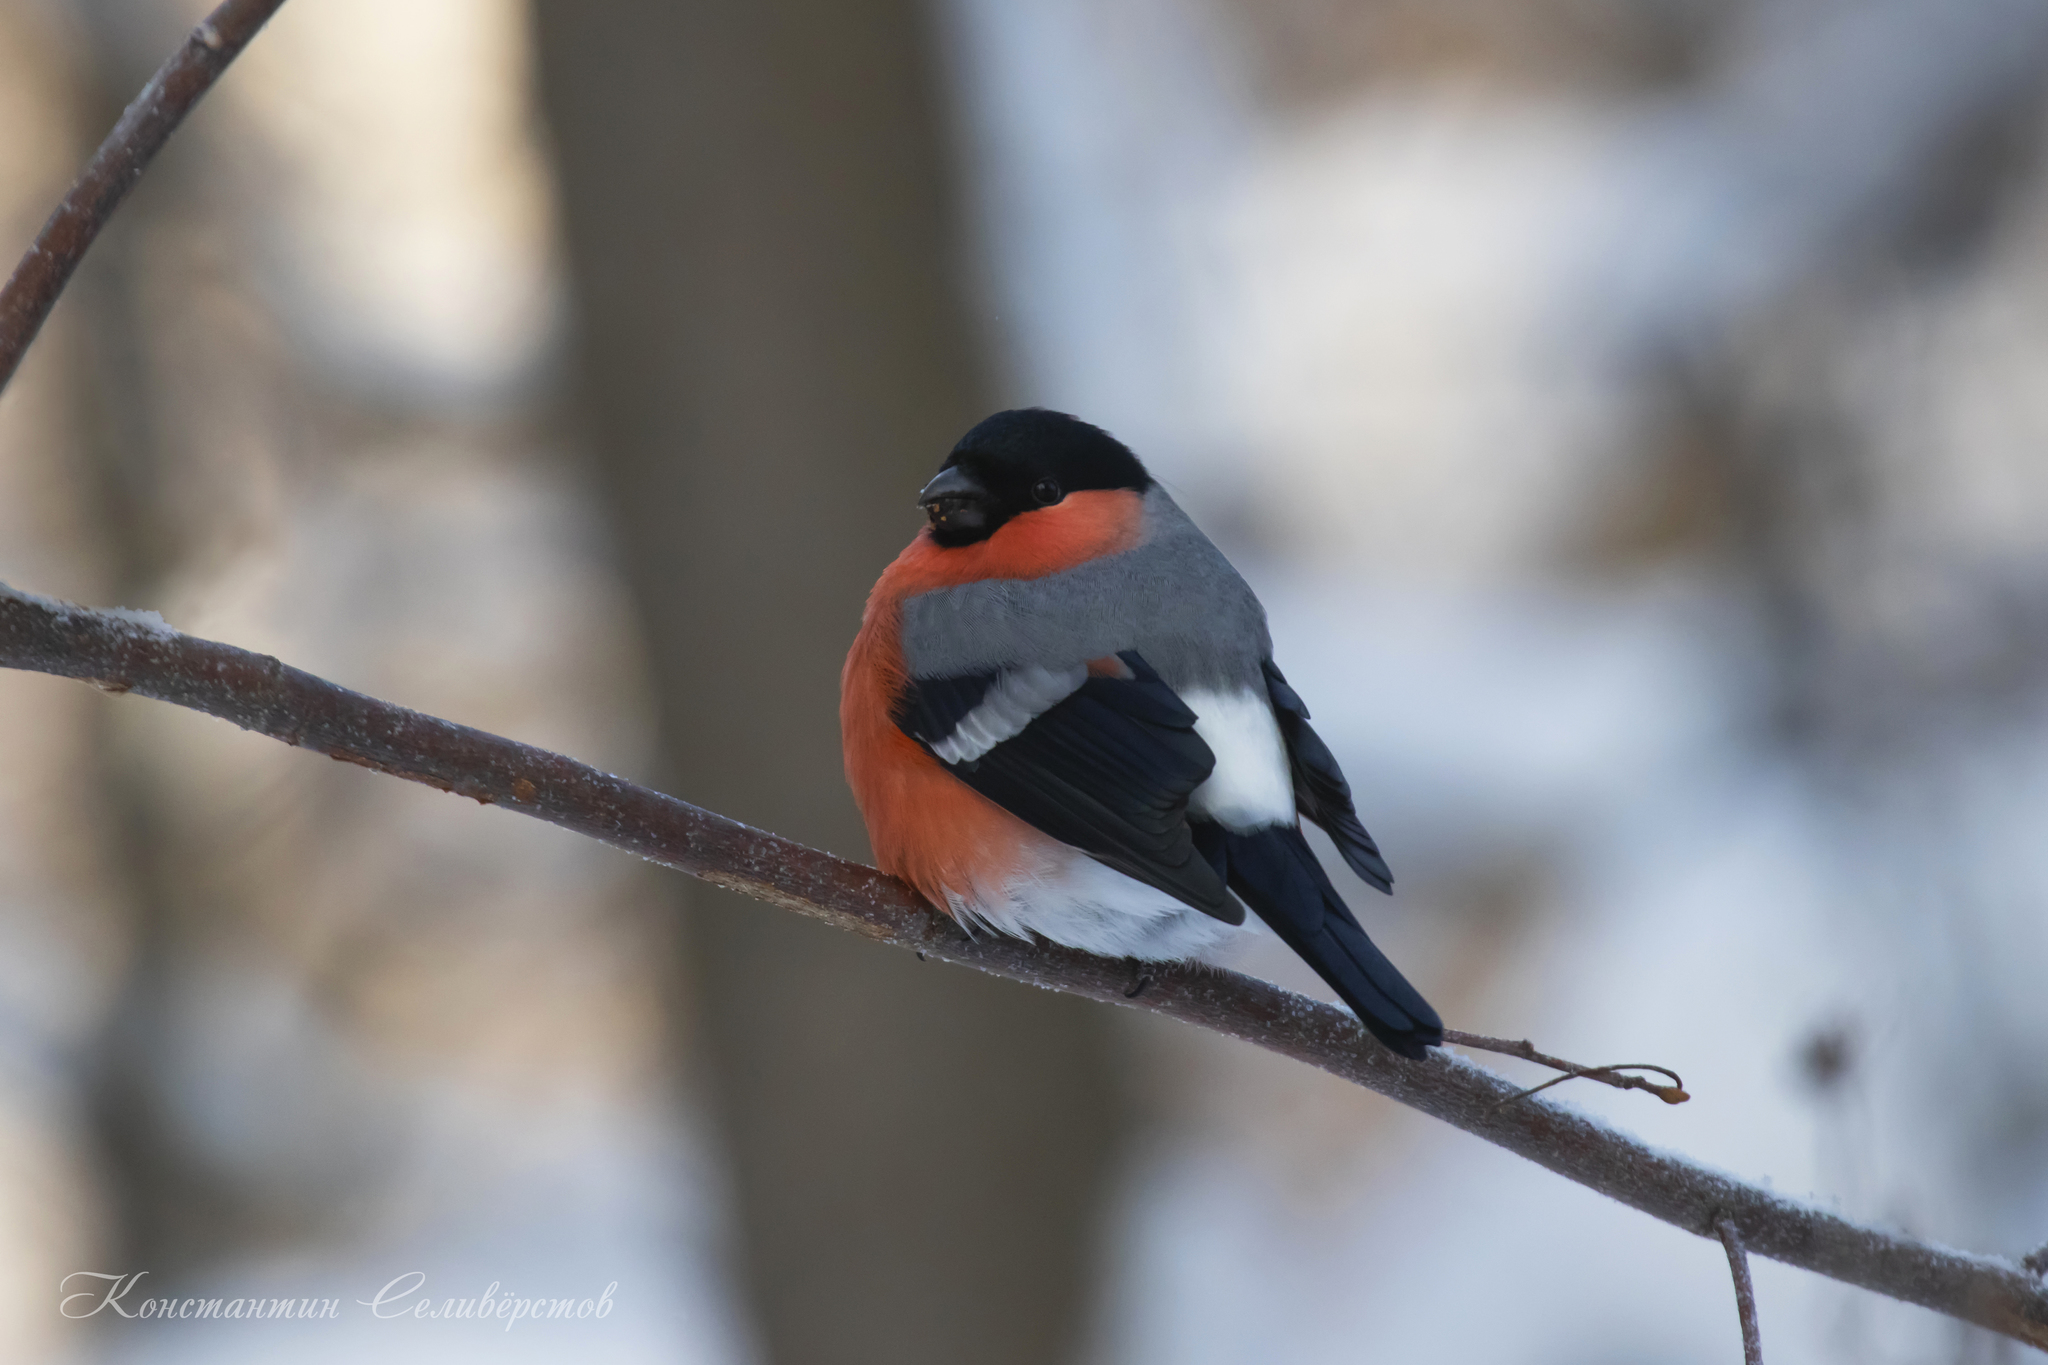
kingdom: Animalia
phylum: Chordata
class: Aves
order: Passeriformes
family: Fringillidae
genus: Pyrrhula
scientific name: Pyrrhula pyrrhula
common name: Eurasian bullfinch
